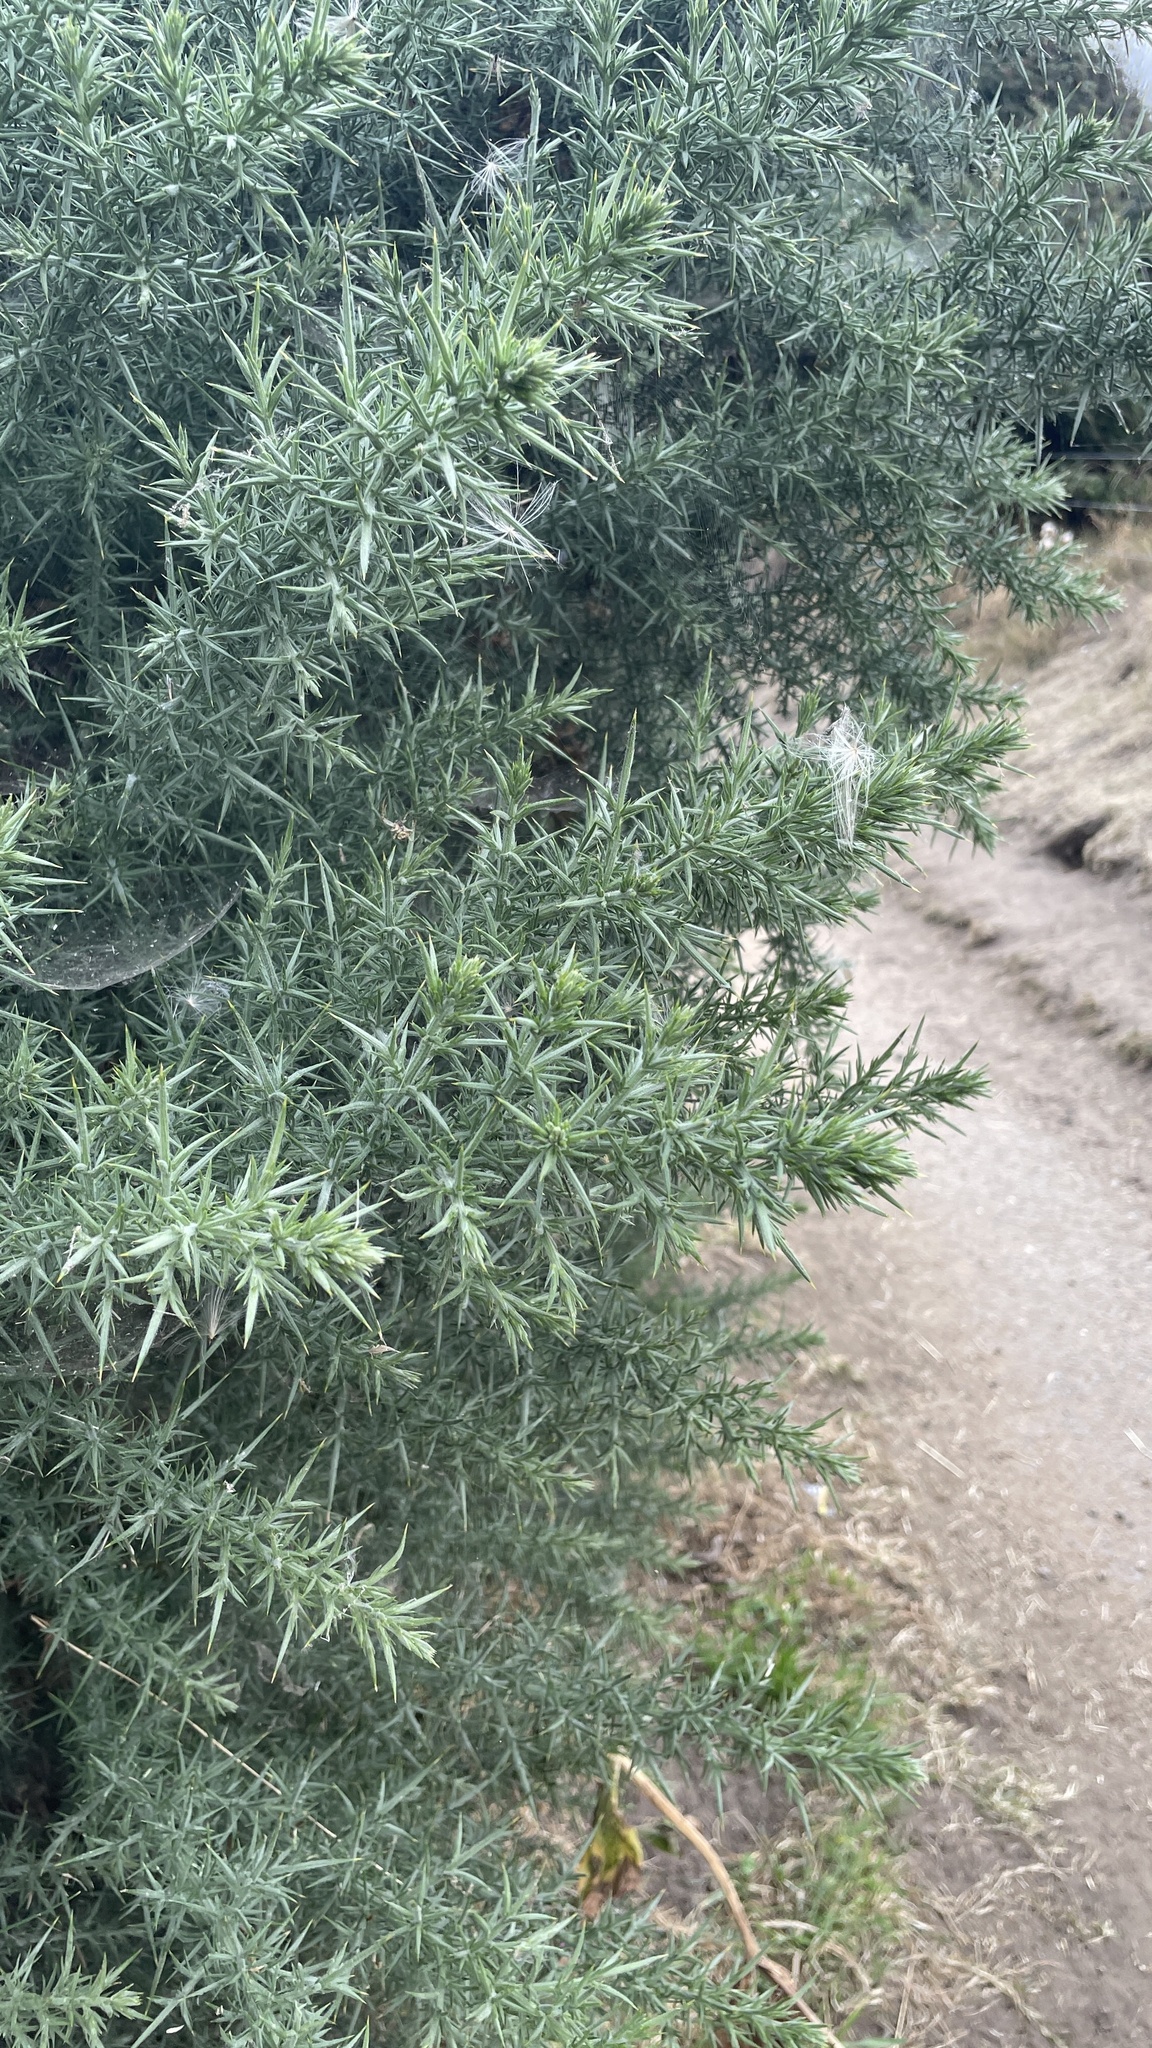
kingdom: Plantae
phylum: Tracheophyta
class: Magnoliopsida
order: Fabales
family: Fabaceae
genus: Ulex
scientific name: Ulex europaeus
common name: Common gorse
